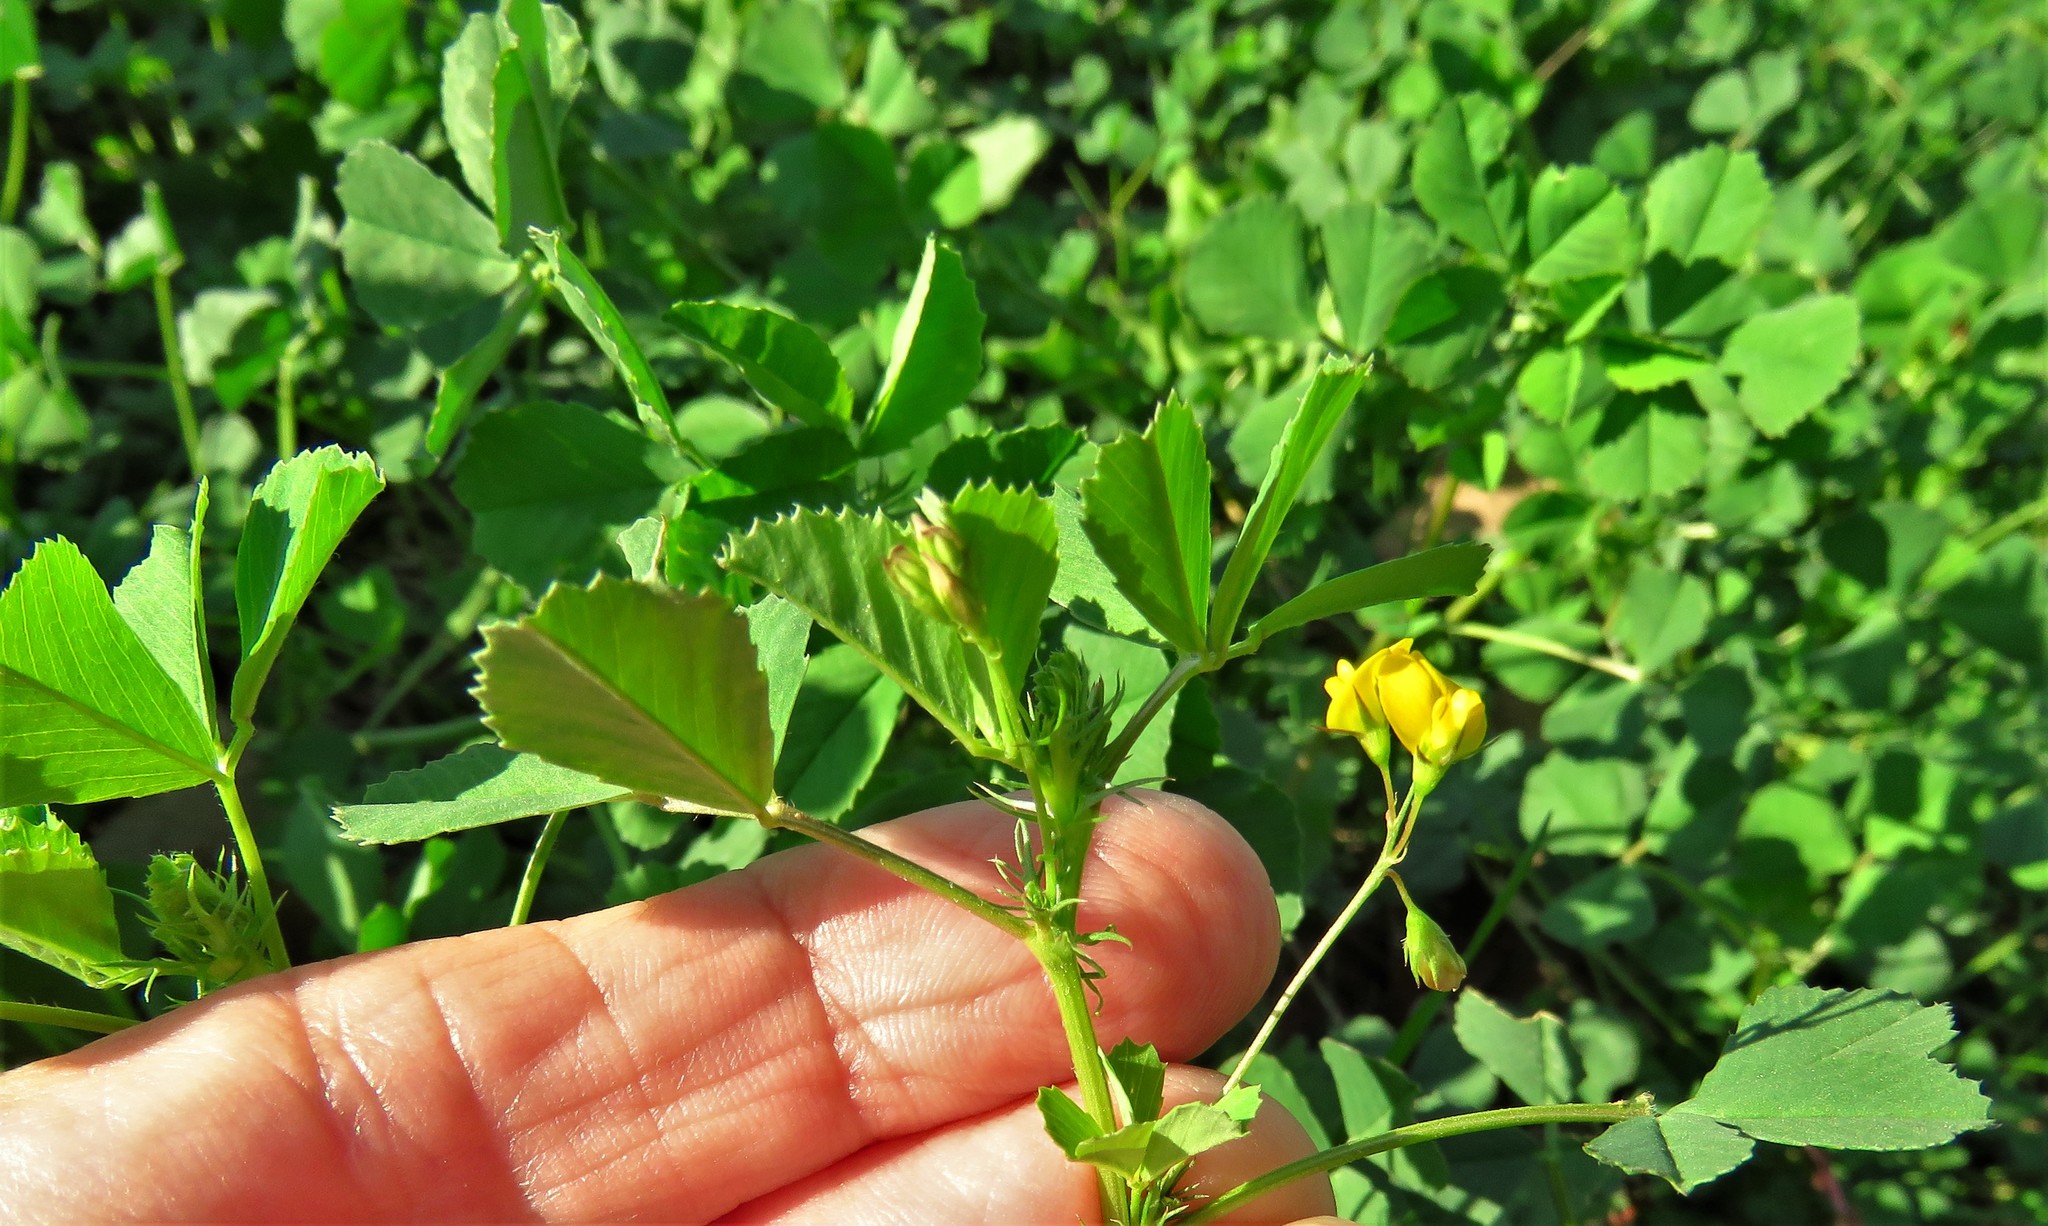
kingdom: Plantae
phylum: Tracheophyta
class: Magnoliopsida
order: Fabales
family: Fabaceae
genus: Medicago
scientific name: Medicago polymorpha
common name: Burclover
